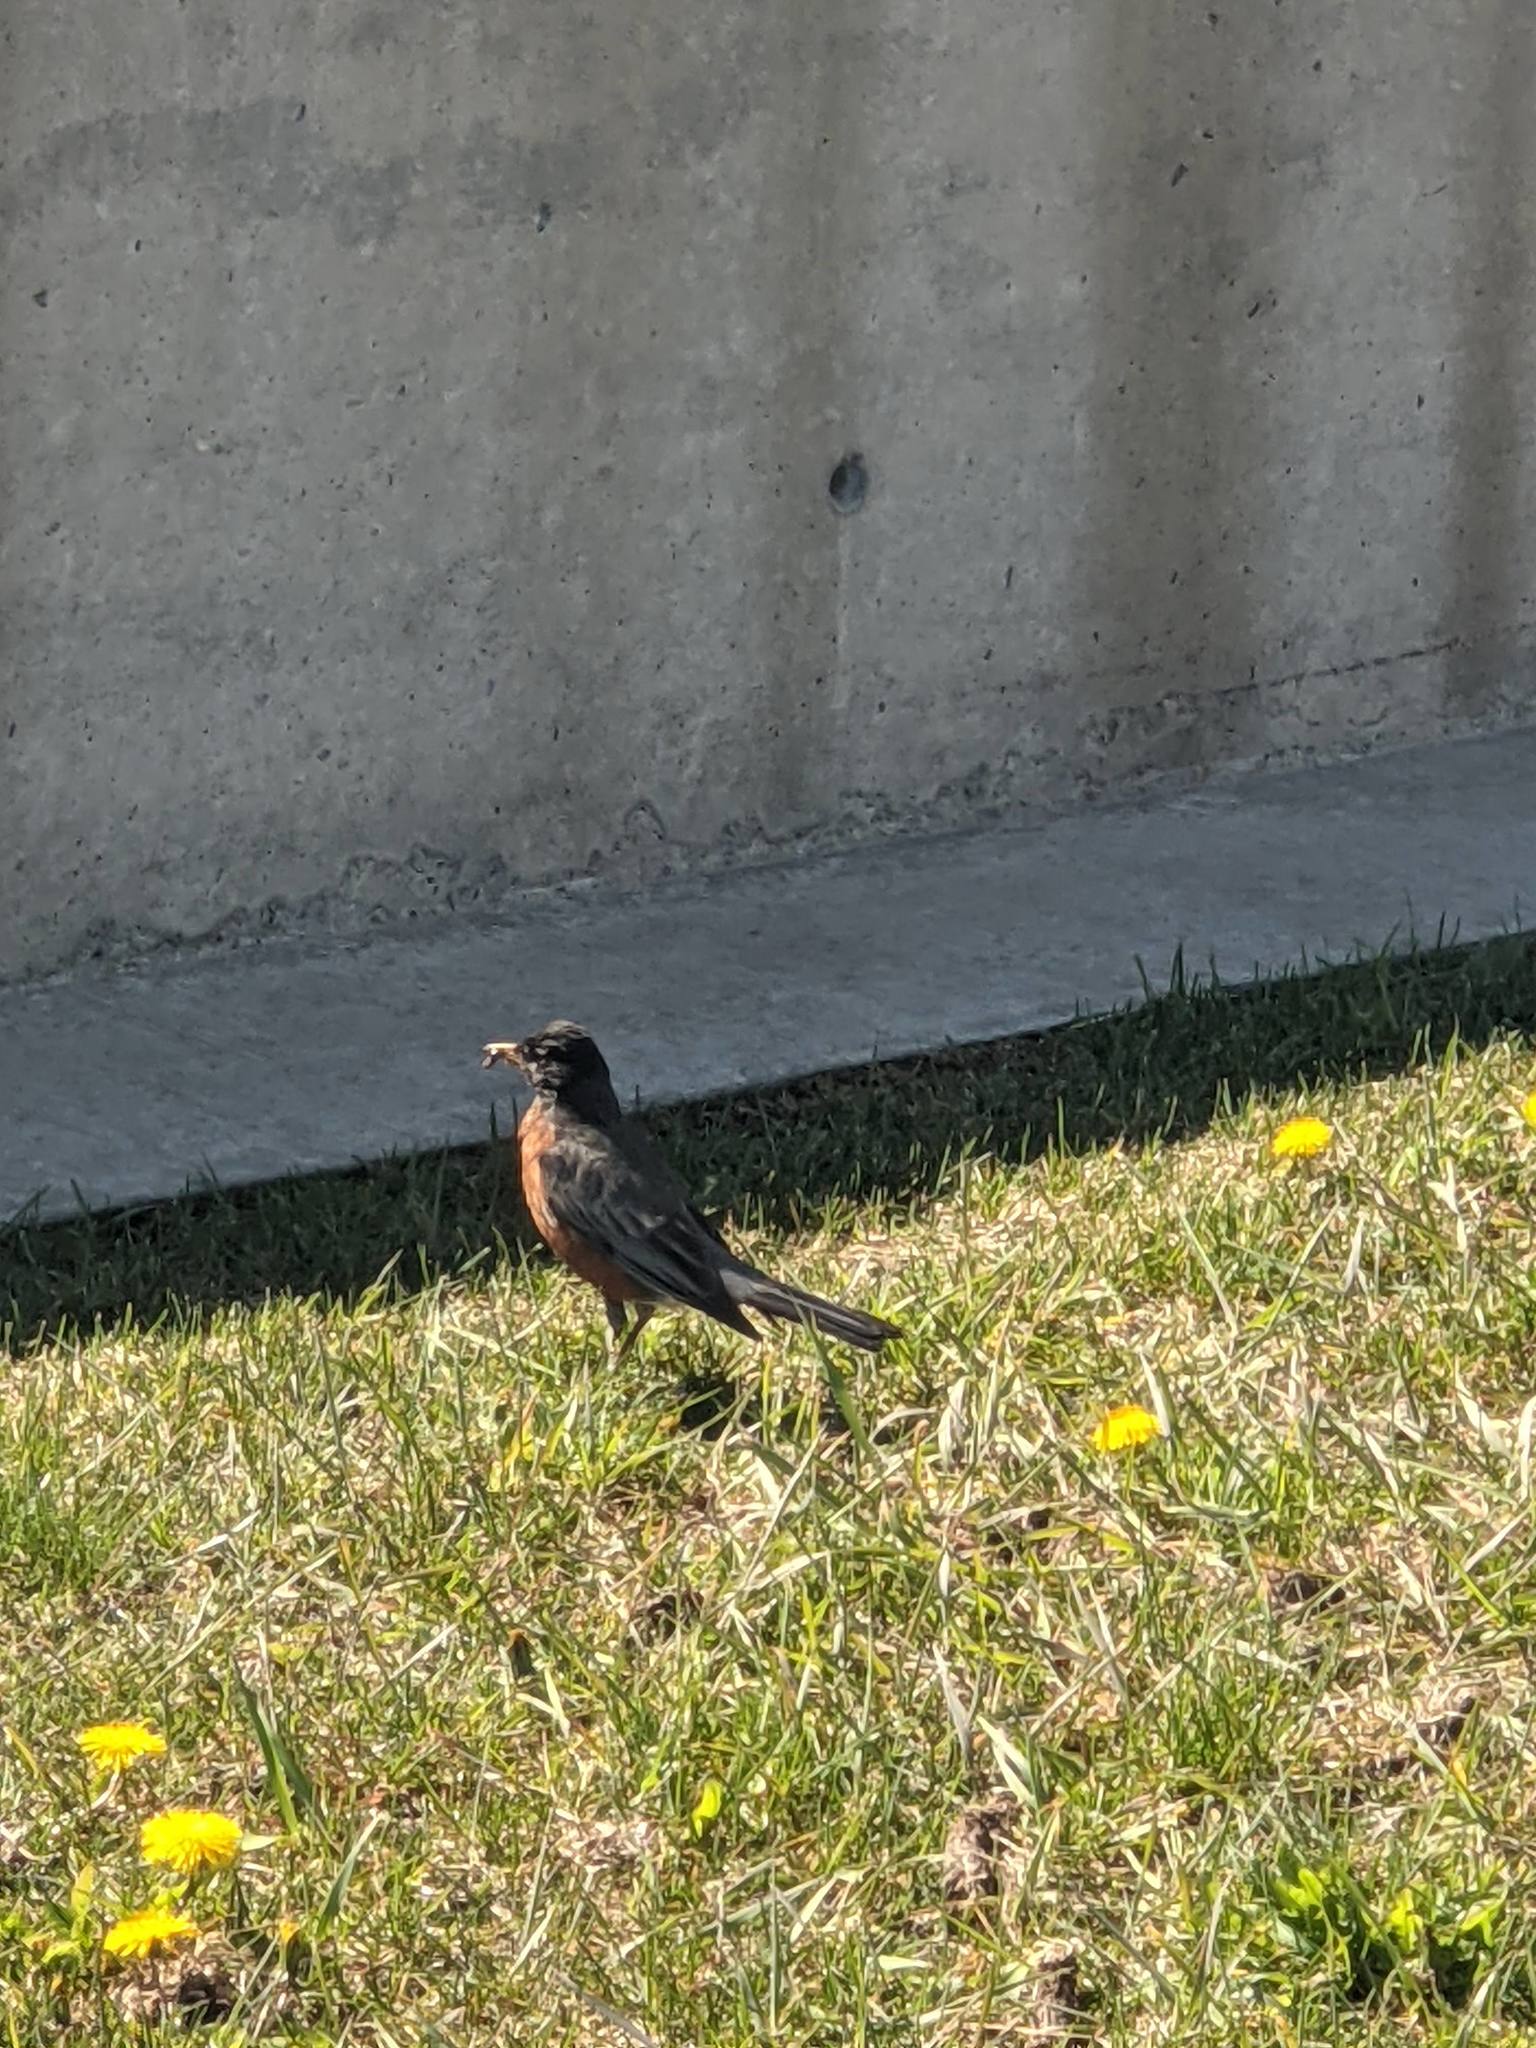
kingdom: Animalia
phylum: Chordata
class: Aves
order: Passeriformes
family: Turdidae
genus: Turdus
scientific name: Turdus migratorius
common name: American robin
